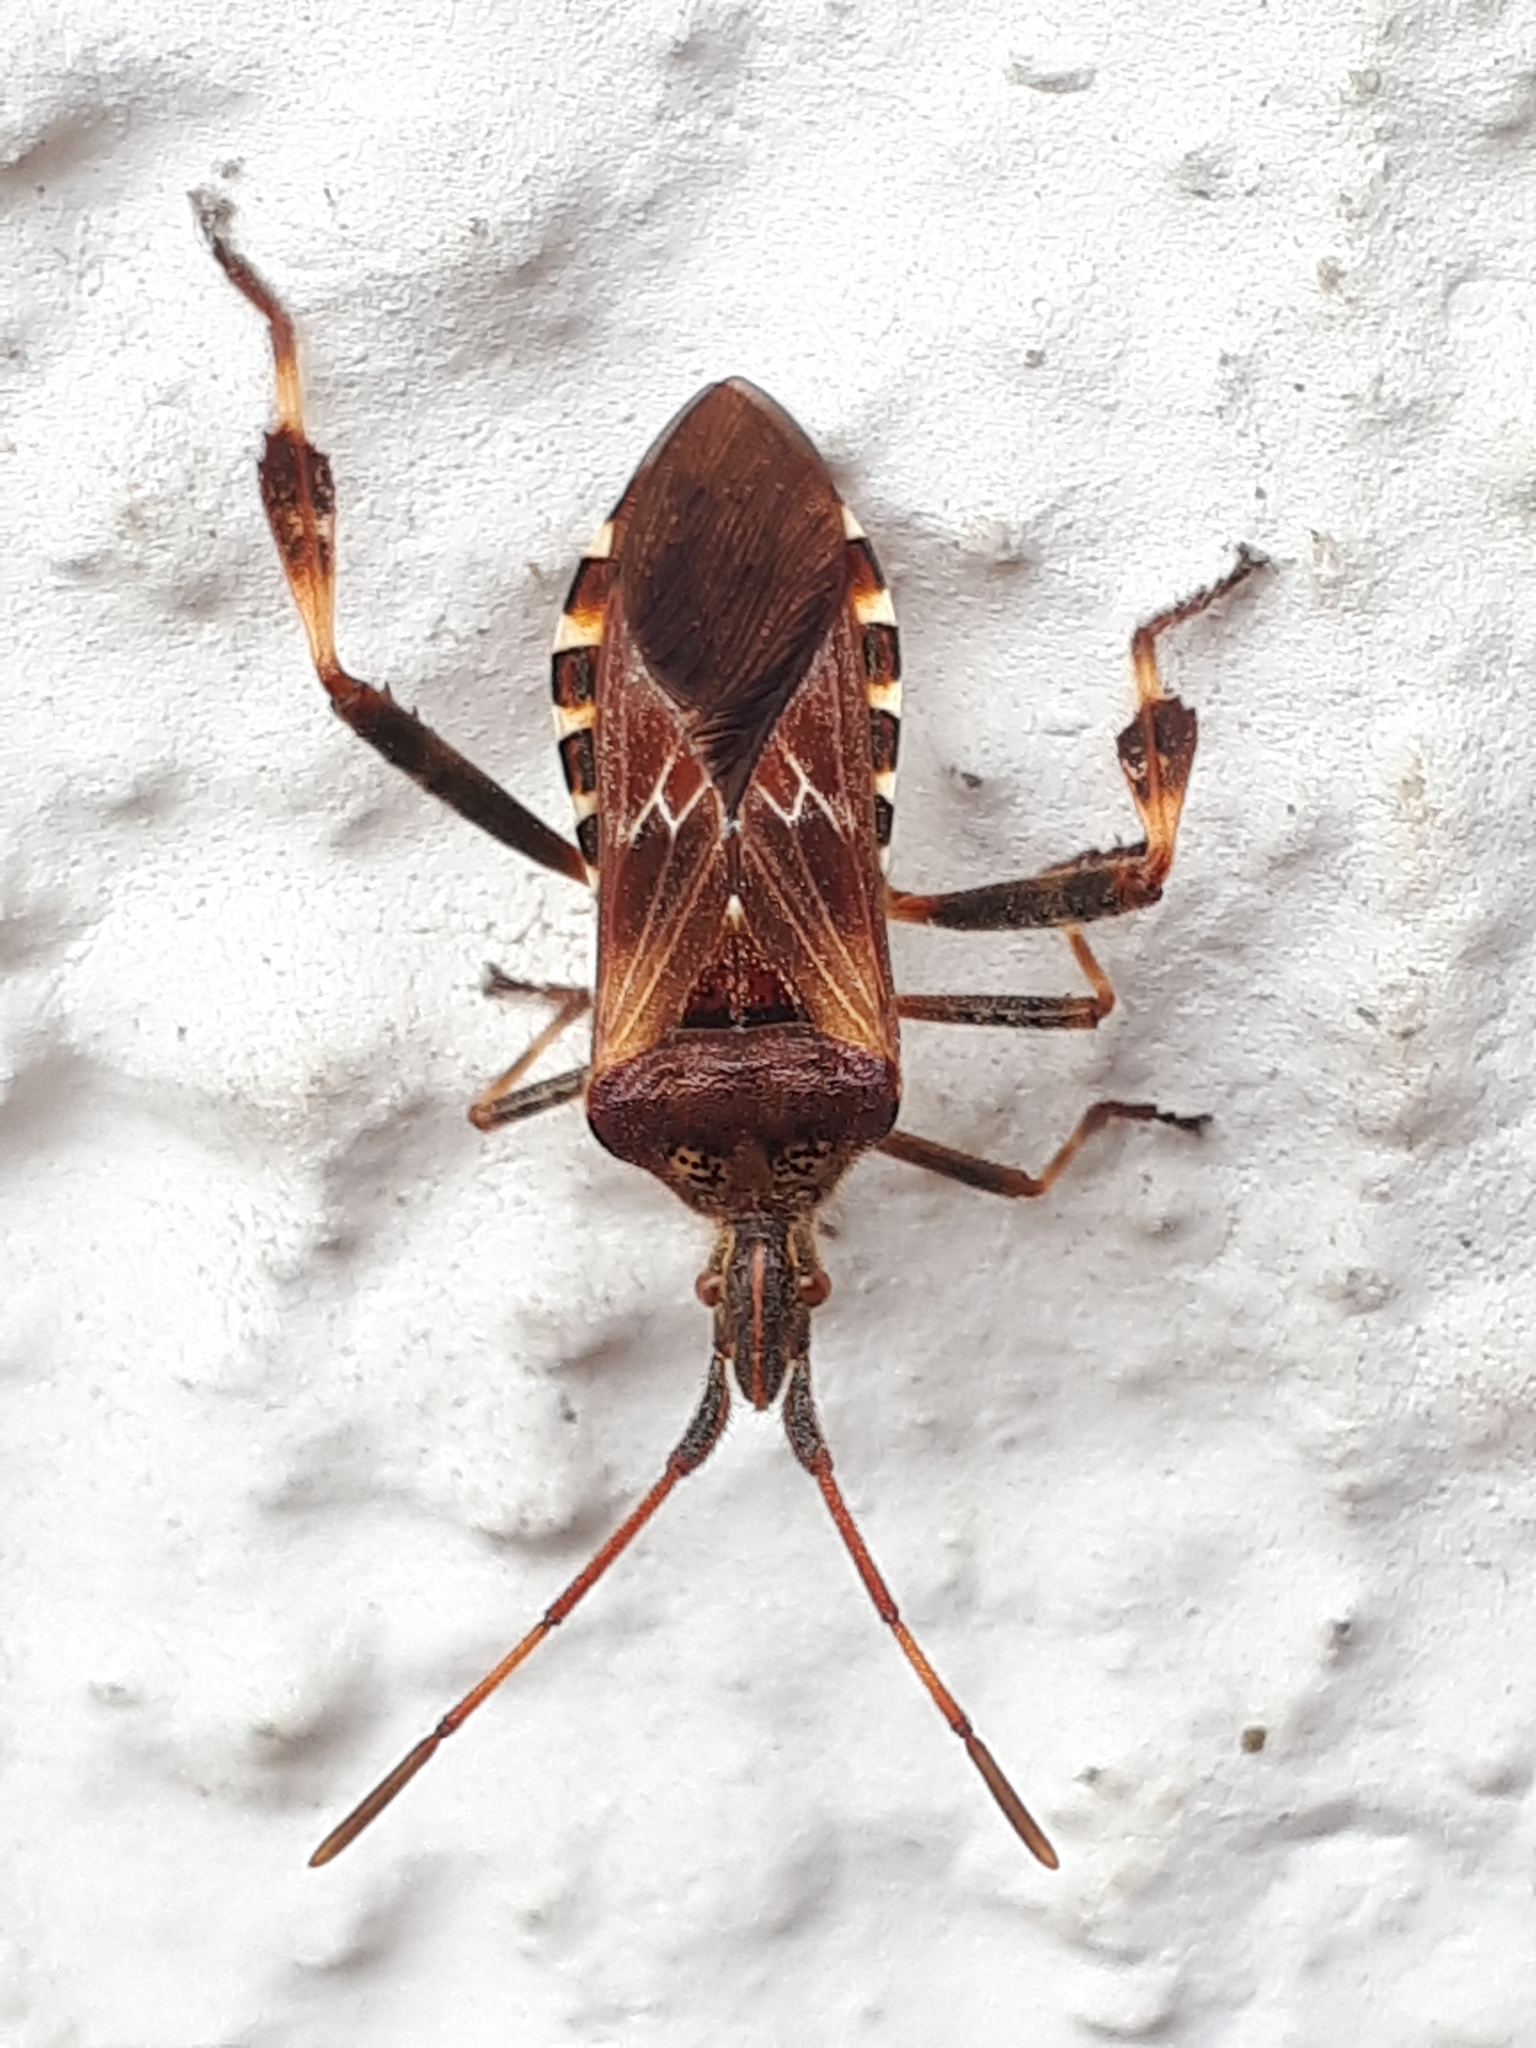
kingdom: Animalia
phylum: Arthropoda
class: Insecta
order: Hemiptera
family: Coreidae
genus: Leptoglossus
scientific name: Leptoglossus occidentalis
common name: Western conifer-seed bug
